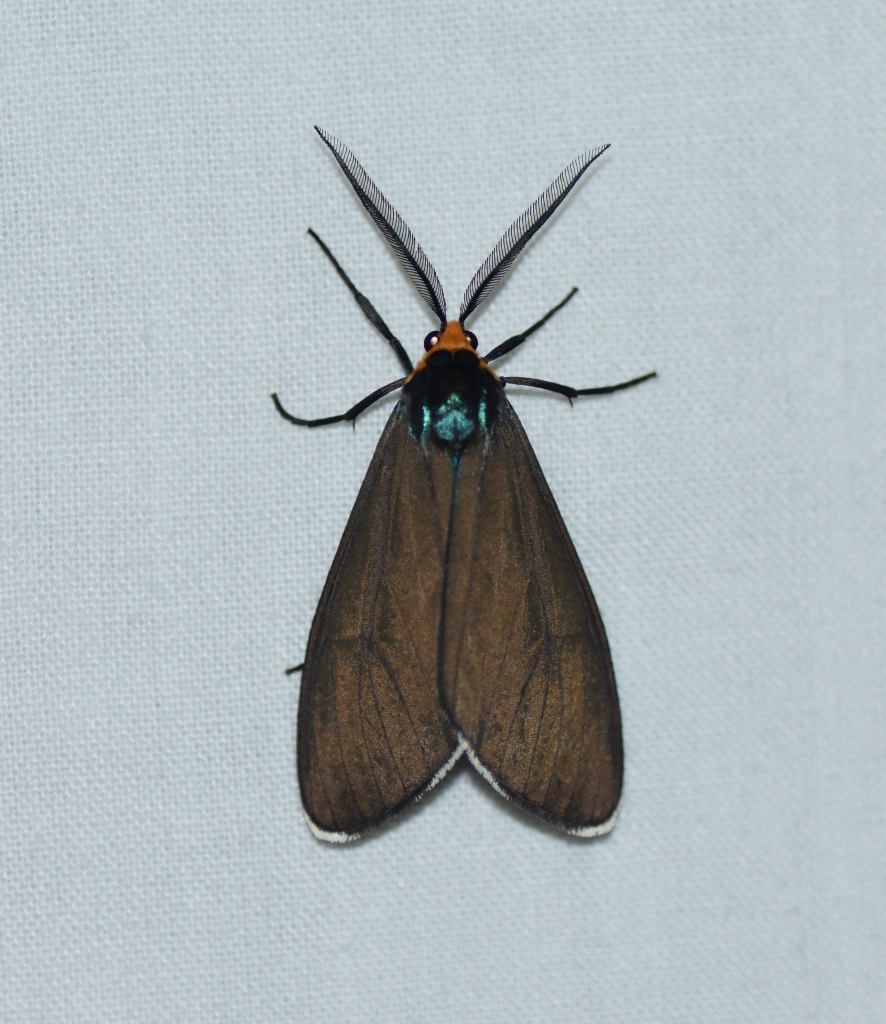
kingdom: Animalia
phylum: Arthropoda
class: Insecta
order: Lepidoptera
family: Erebidae
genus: Ctenucha
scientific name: Ctenucha virginica
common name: Virginia ctenucha moth
